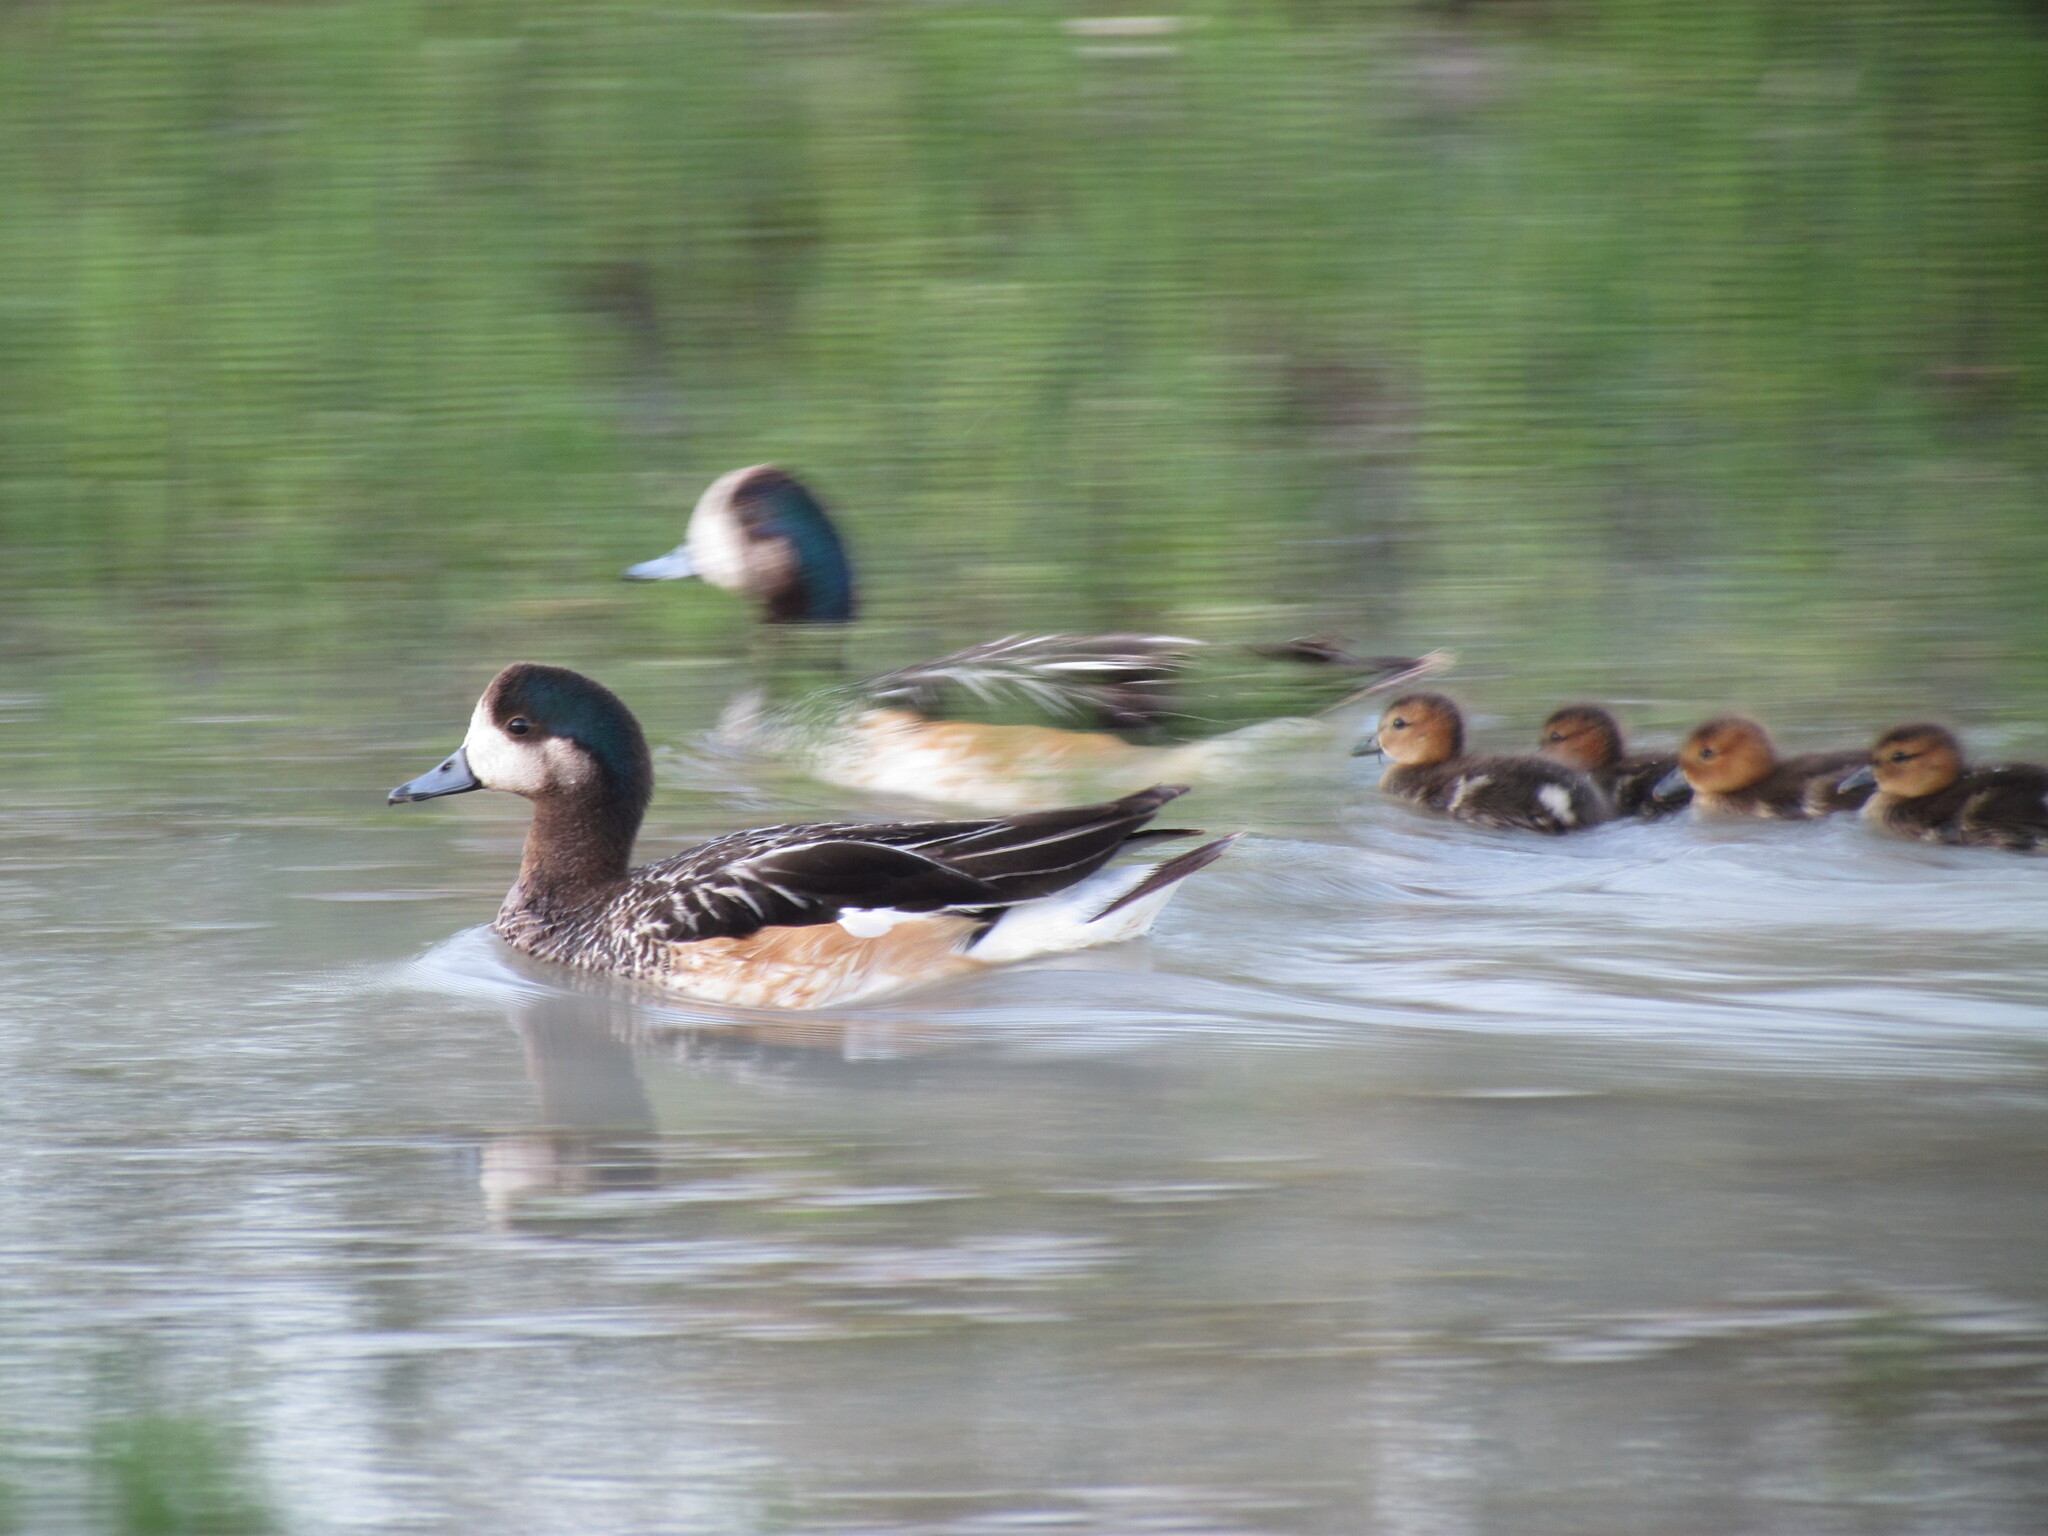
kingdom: Animalia
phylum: Chordata
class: Aves
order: Anseriformes
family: Anatidae
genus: Mareca
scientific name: Mareca sibilatrix
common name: Chiloe wigeon
